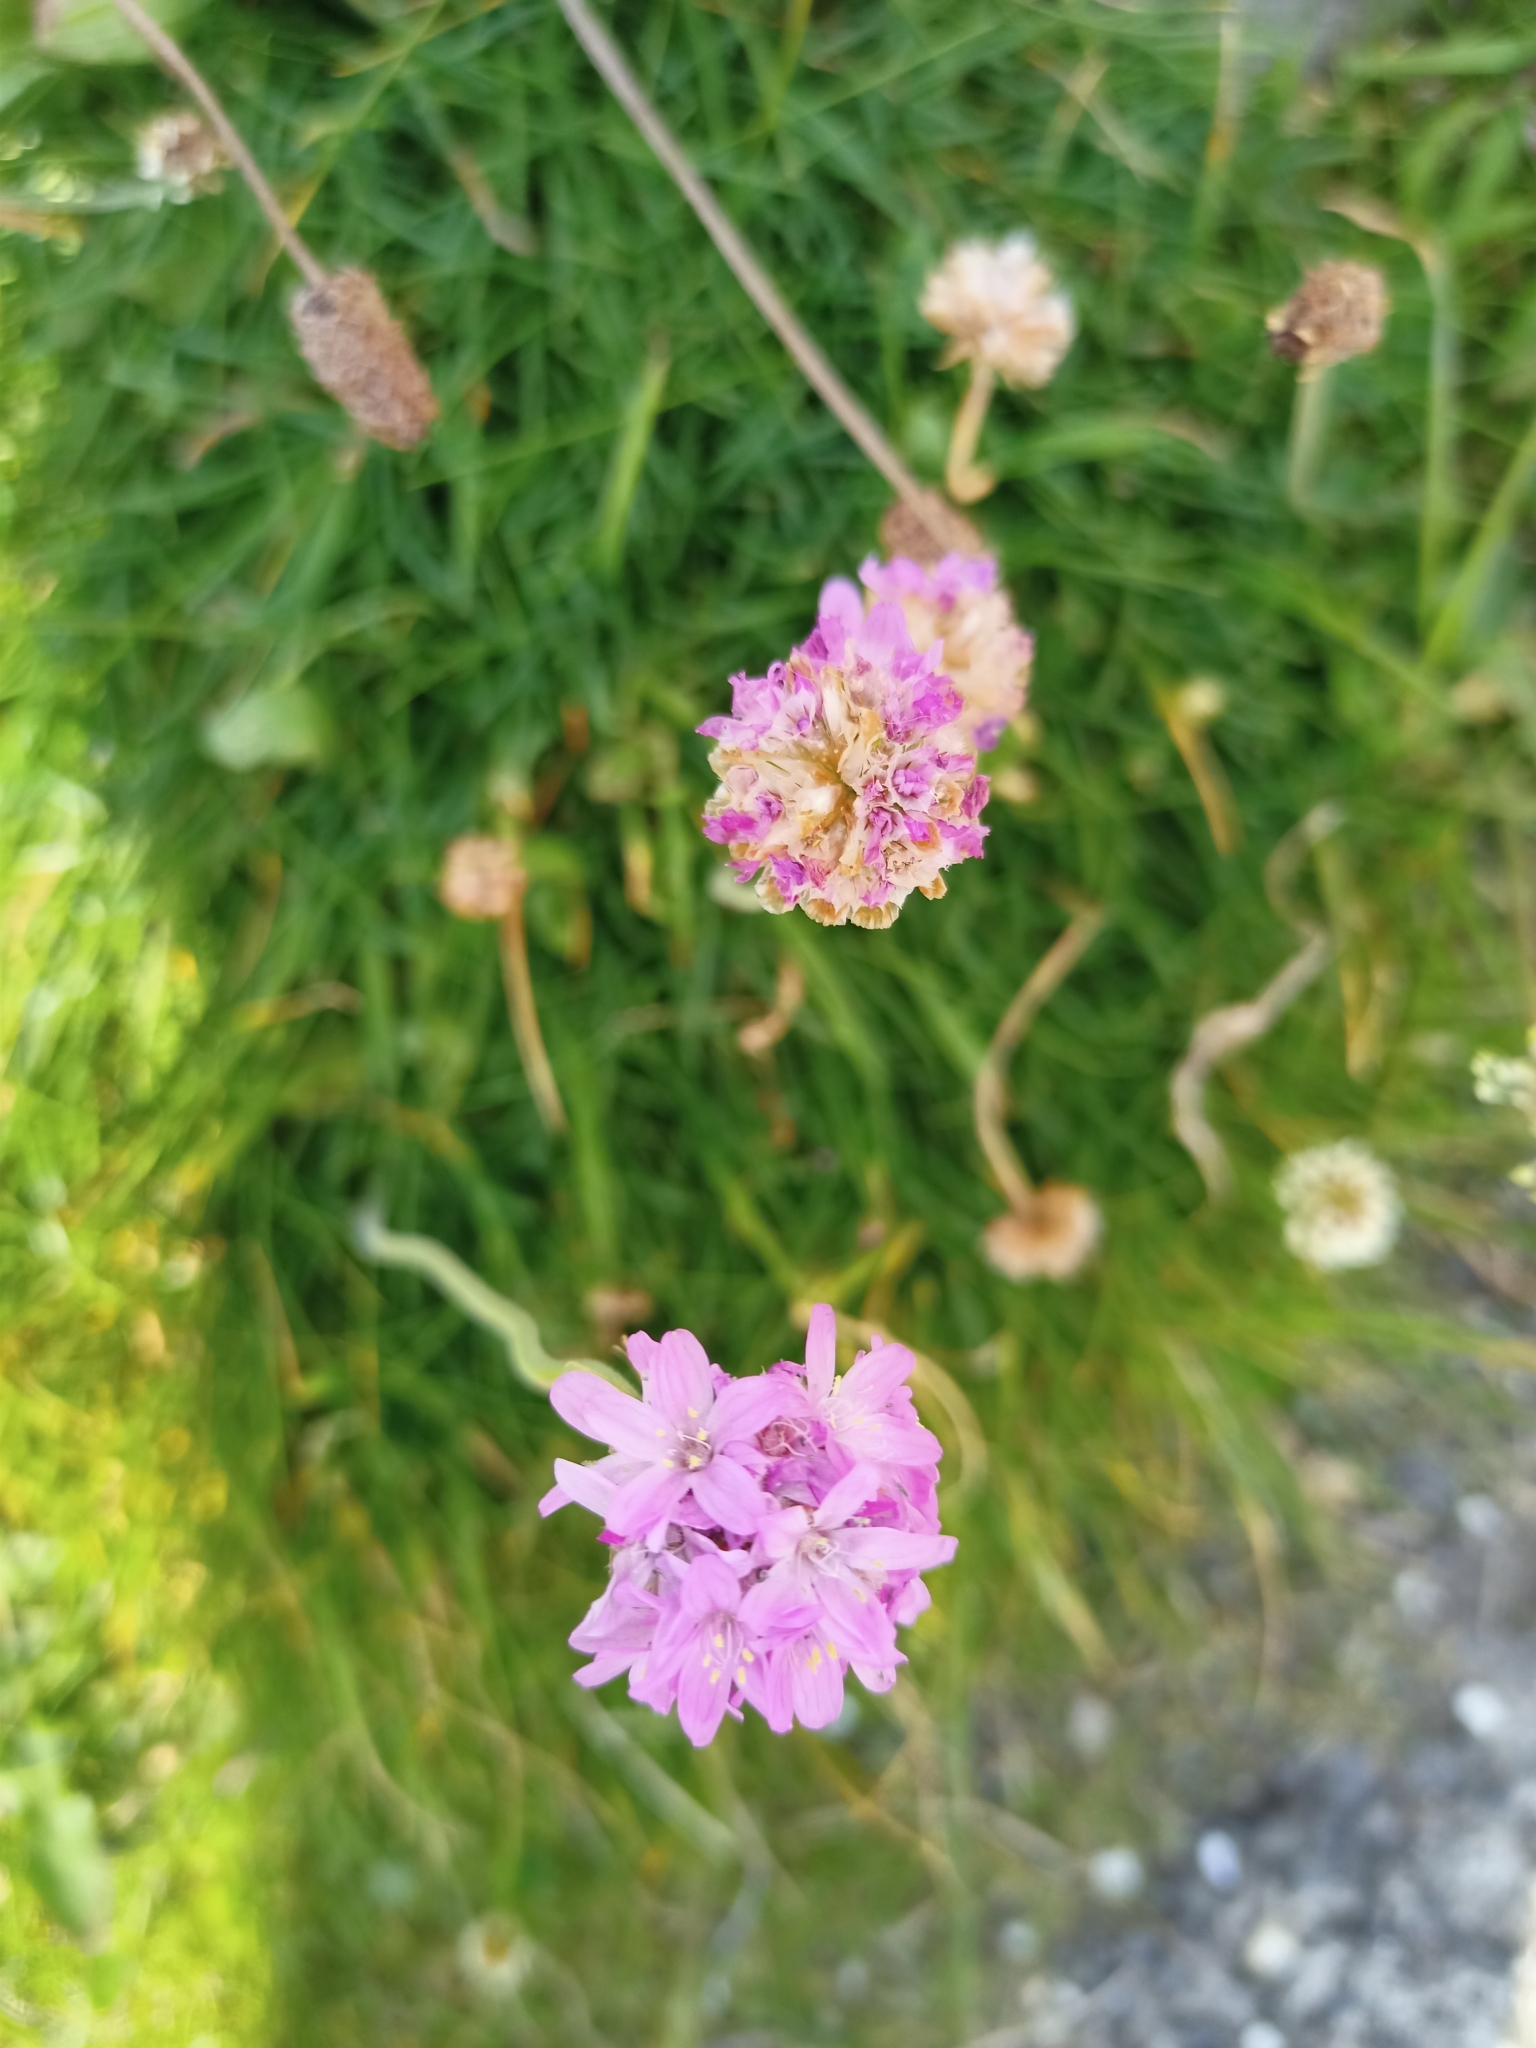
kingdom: Plantae
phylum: Tracheophyta
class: Magnoliopsida
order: Caryophyllales
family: Plumbaginaceae
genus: Armeria
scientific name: Armeria maritima
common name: Thrift
